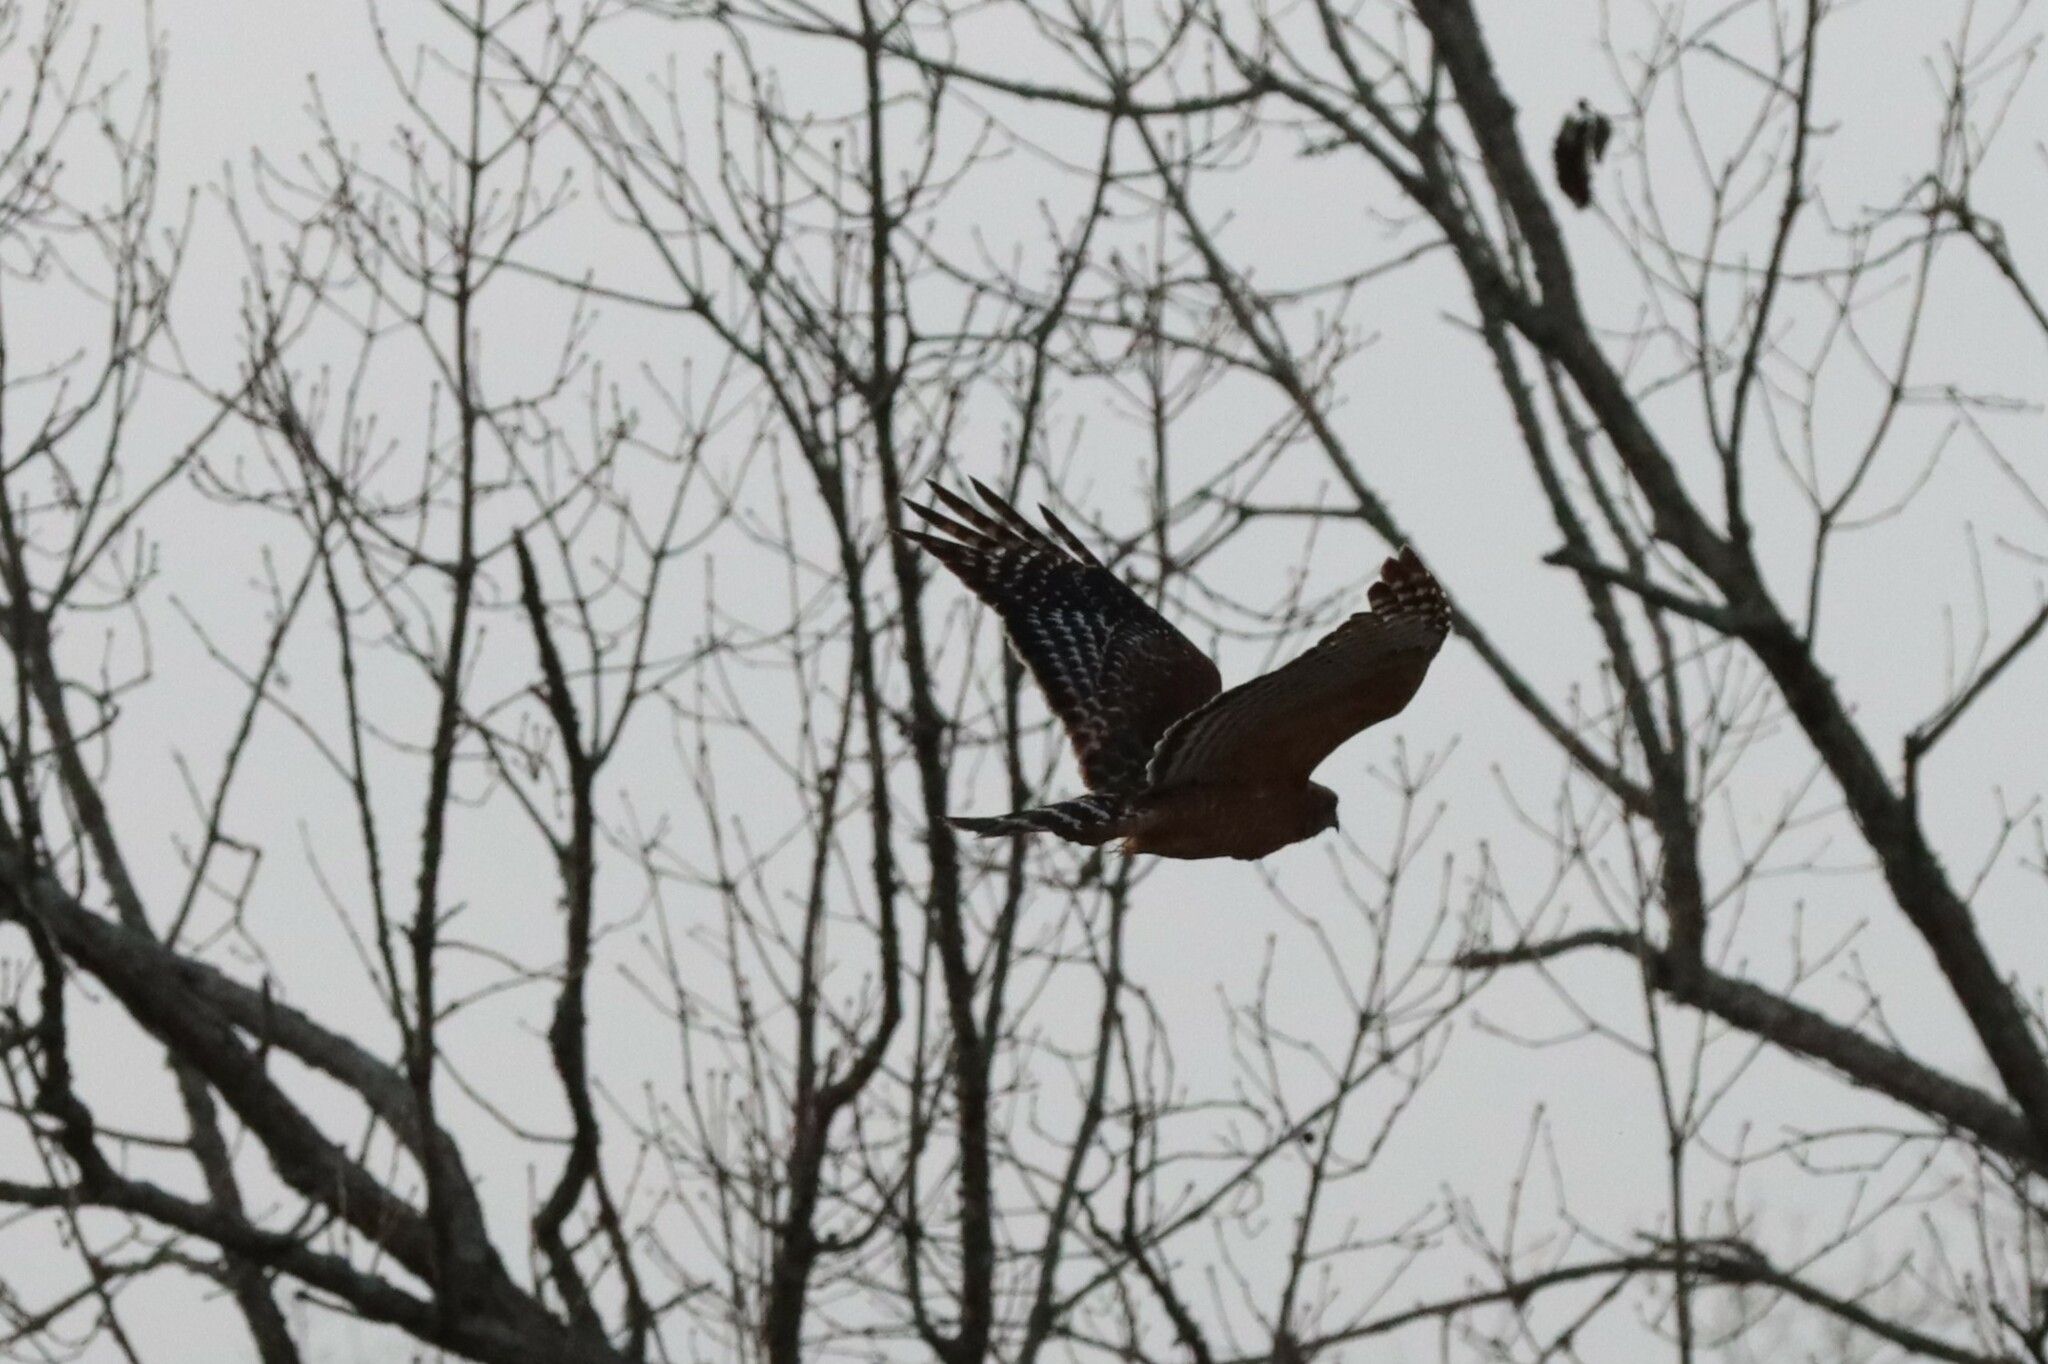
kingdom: Animalia
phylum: Chordata
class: Aves
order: Accipitriformes
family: Accipitridae
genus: Buteo
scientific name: Buteo lineatus
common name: Red-shouldered hawk
